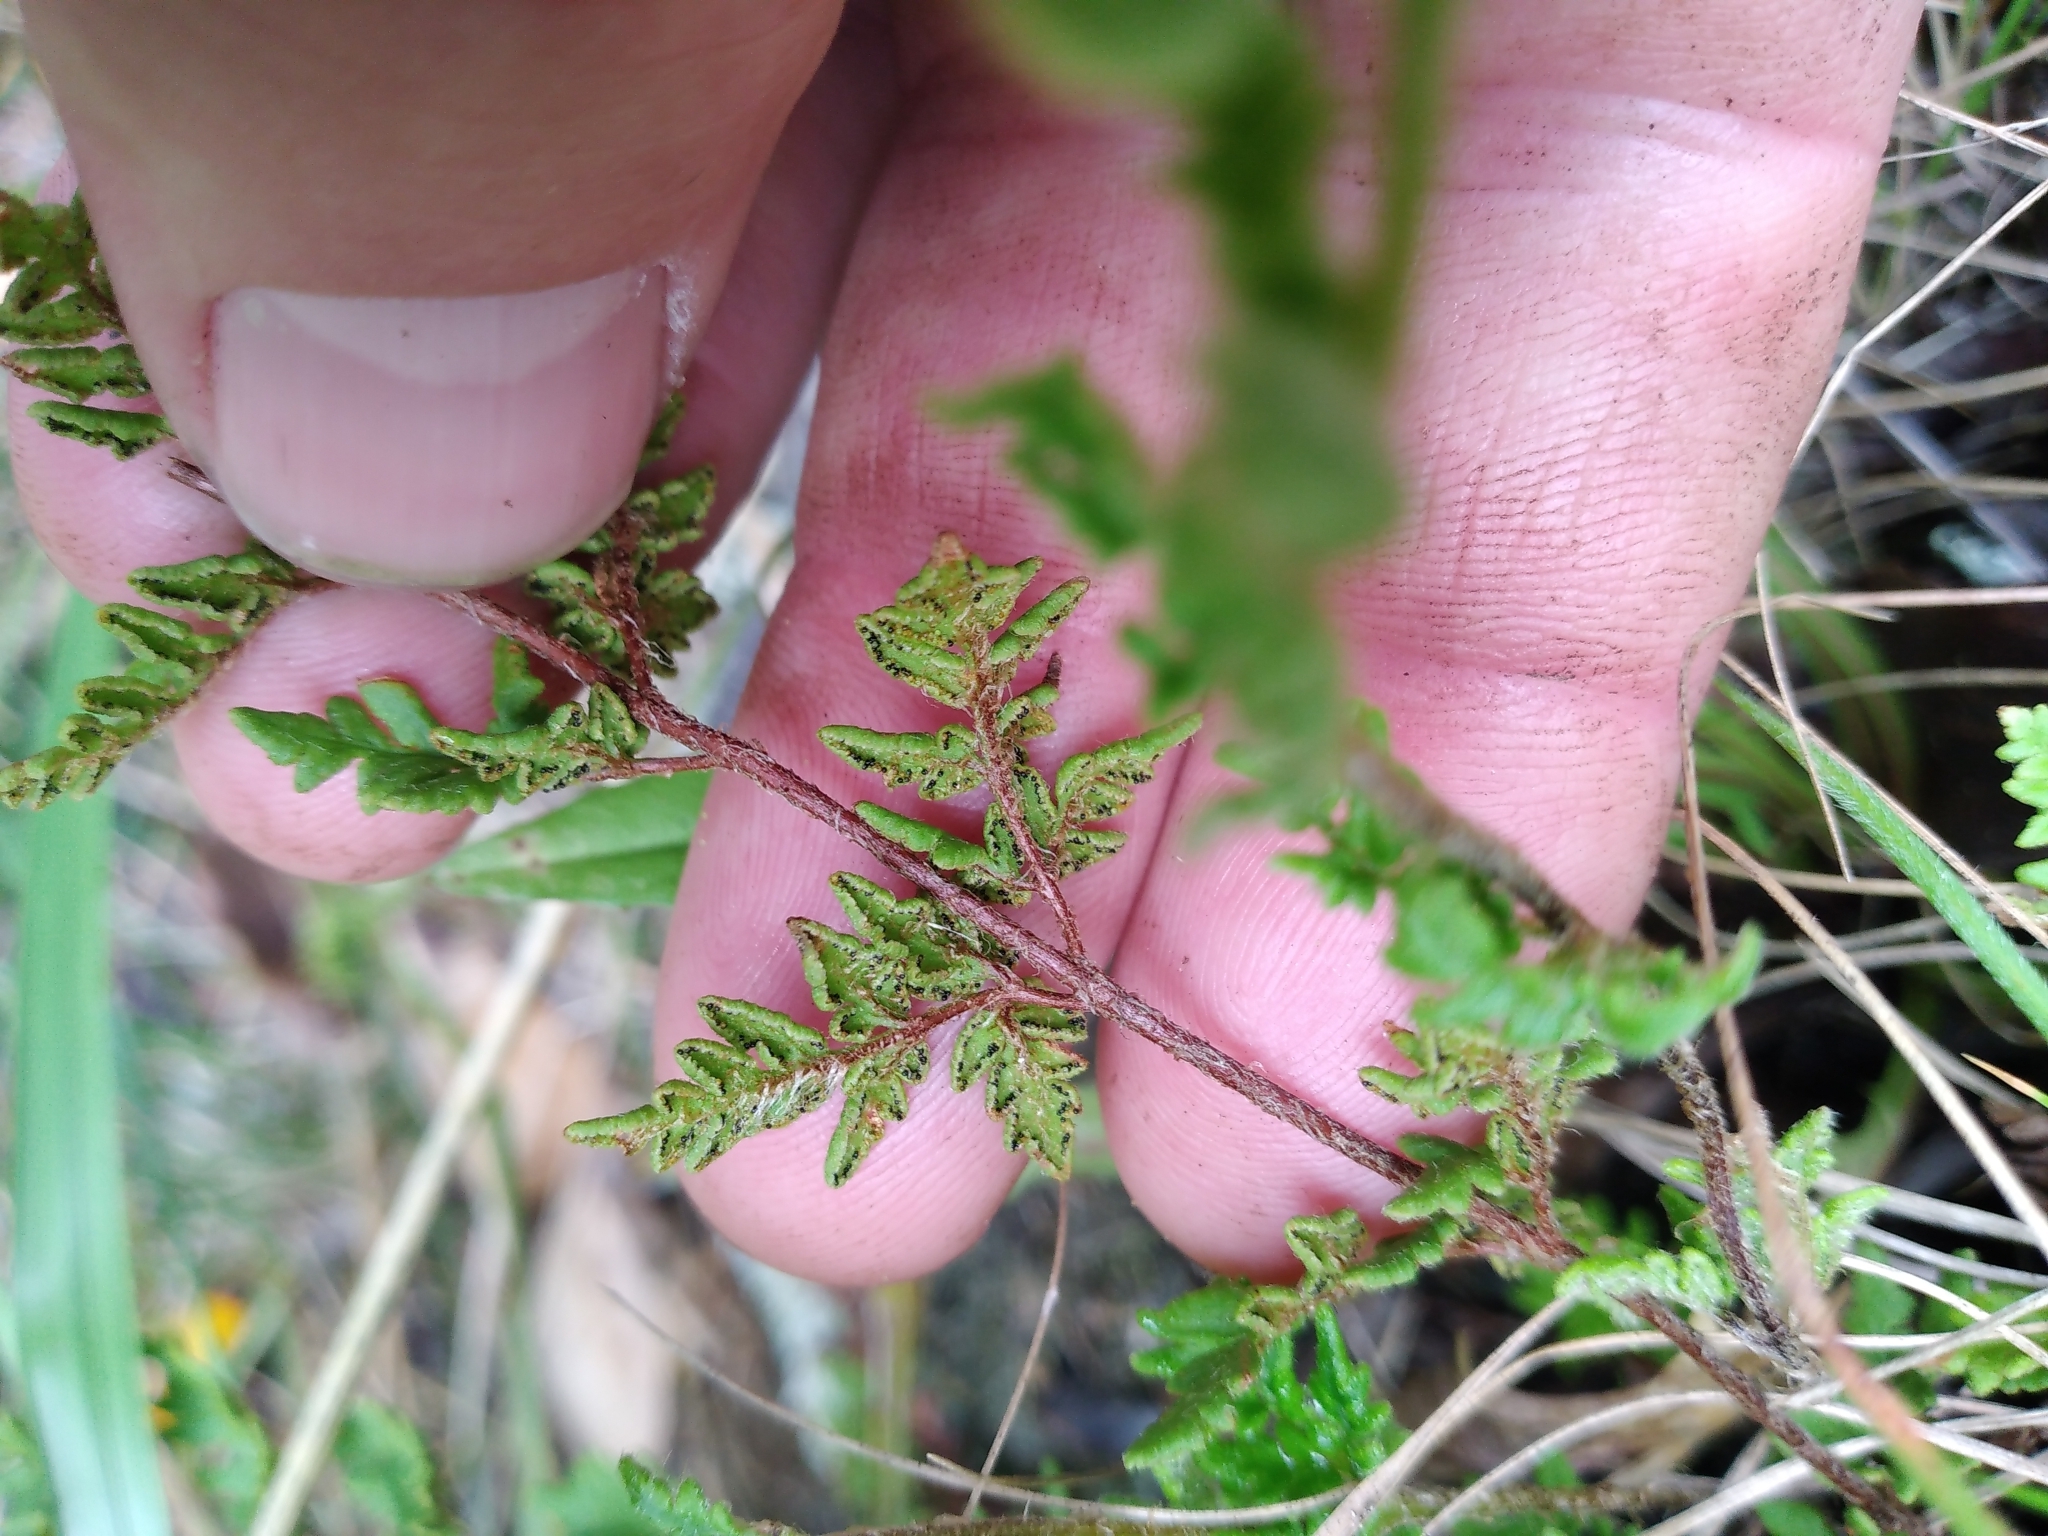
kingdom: Plantae
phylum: Tracheophyta
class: Polypodiopsida
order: Polypodiales
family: Pteridaceae
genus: Cheilanthes
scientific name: Cheilanthes distans
